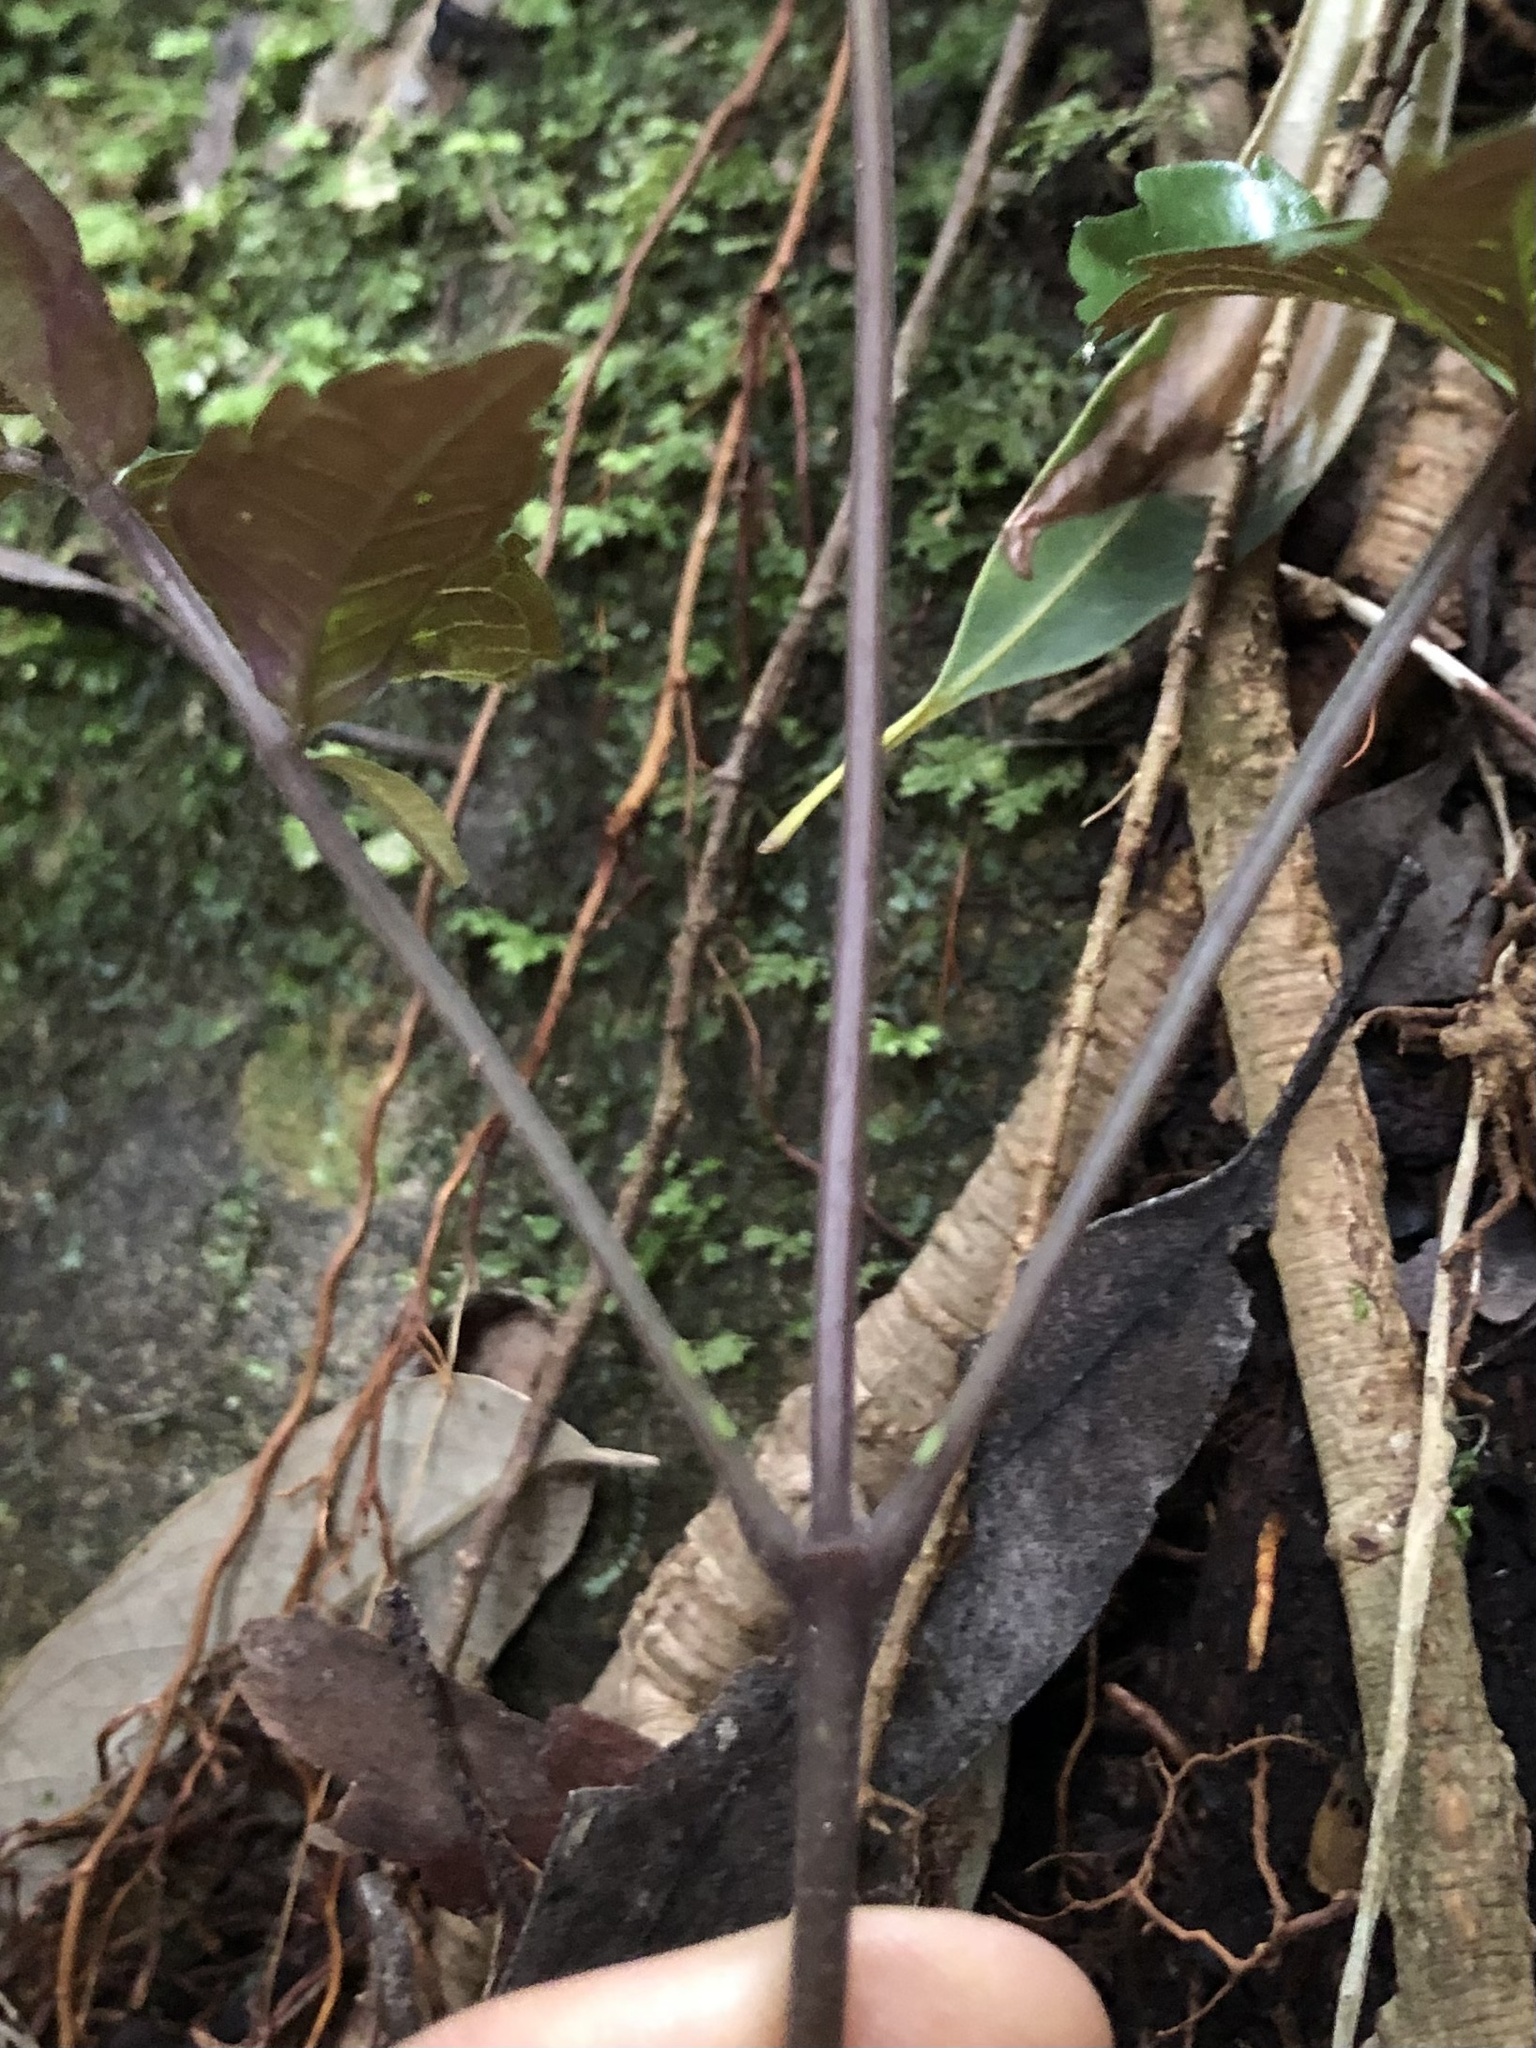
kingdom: Plantae
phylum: Tracheophyta
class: Magnoliopsida
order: Lamiales
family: Bignoniaceae
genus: Pandorea
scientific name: Pandorea baileyana
